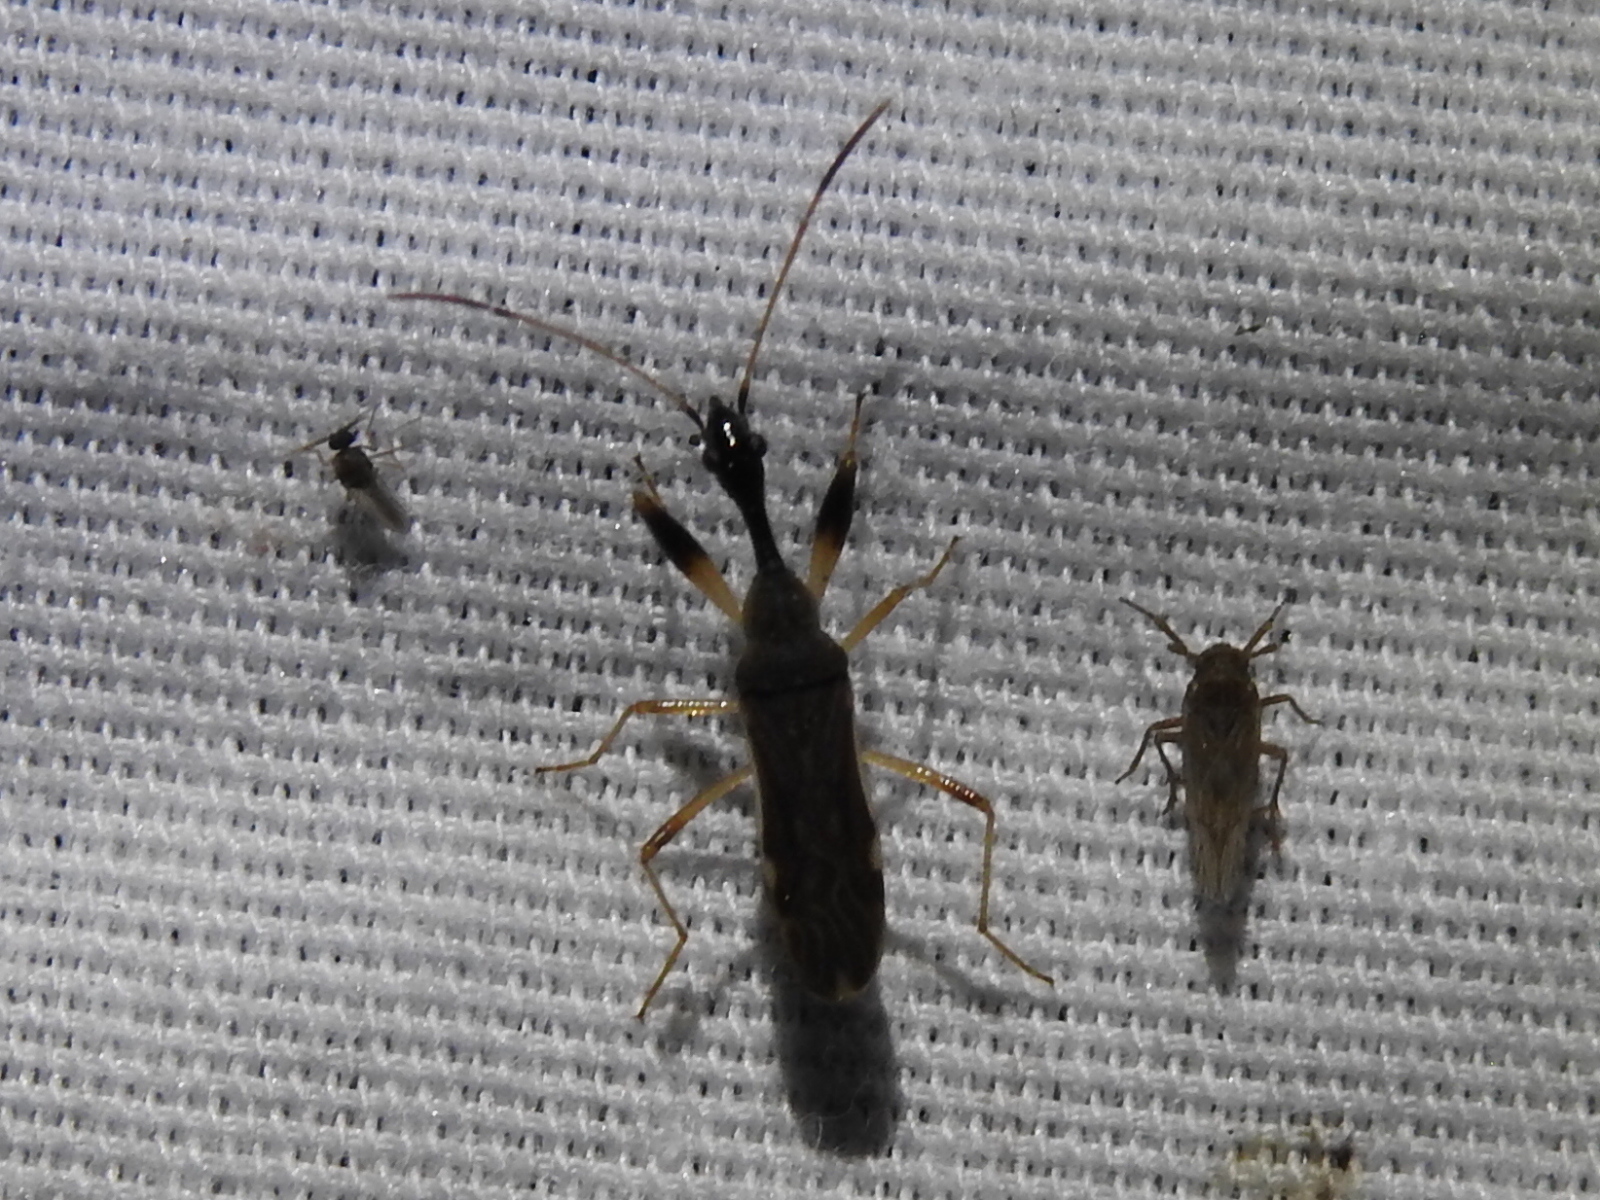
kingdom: Animalia
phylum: Arthropoda
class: Insecta
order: Hemiptera
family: Rhyparochromidae
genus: Myodocha
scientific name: Myodocha serripes
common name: Long-necked seed bug
